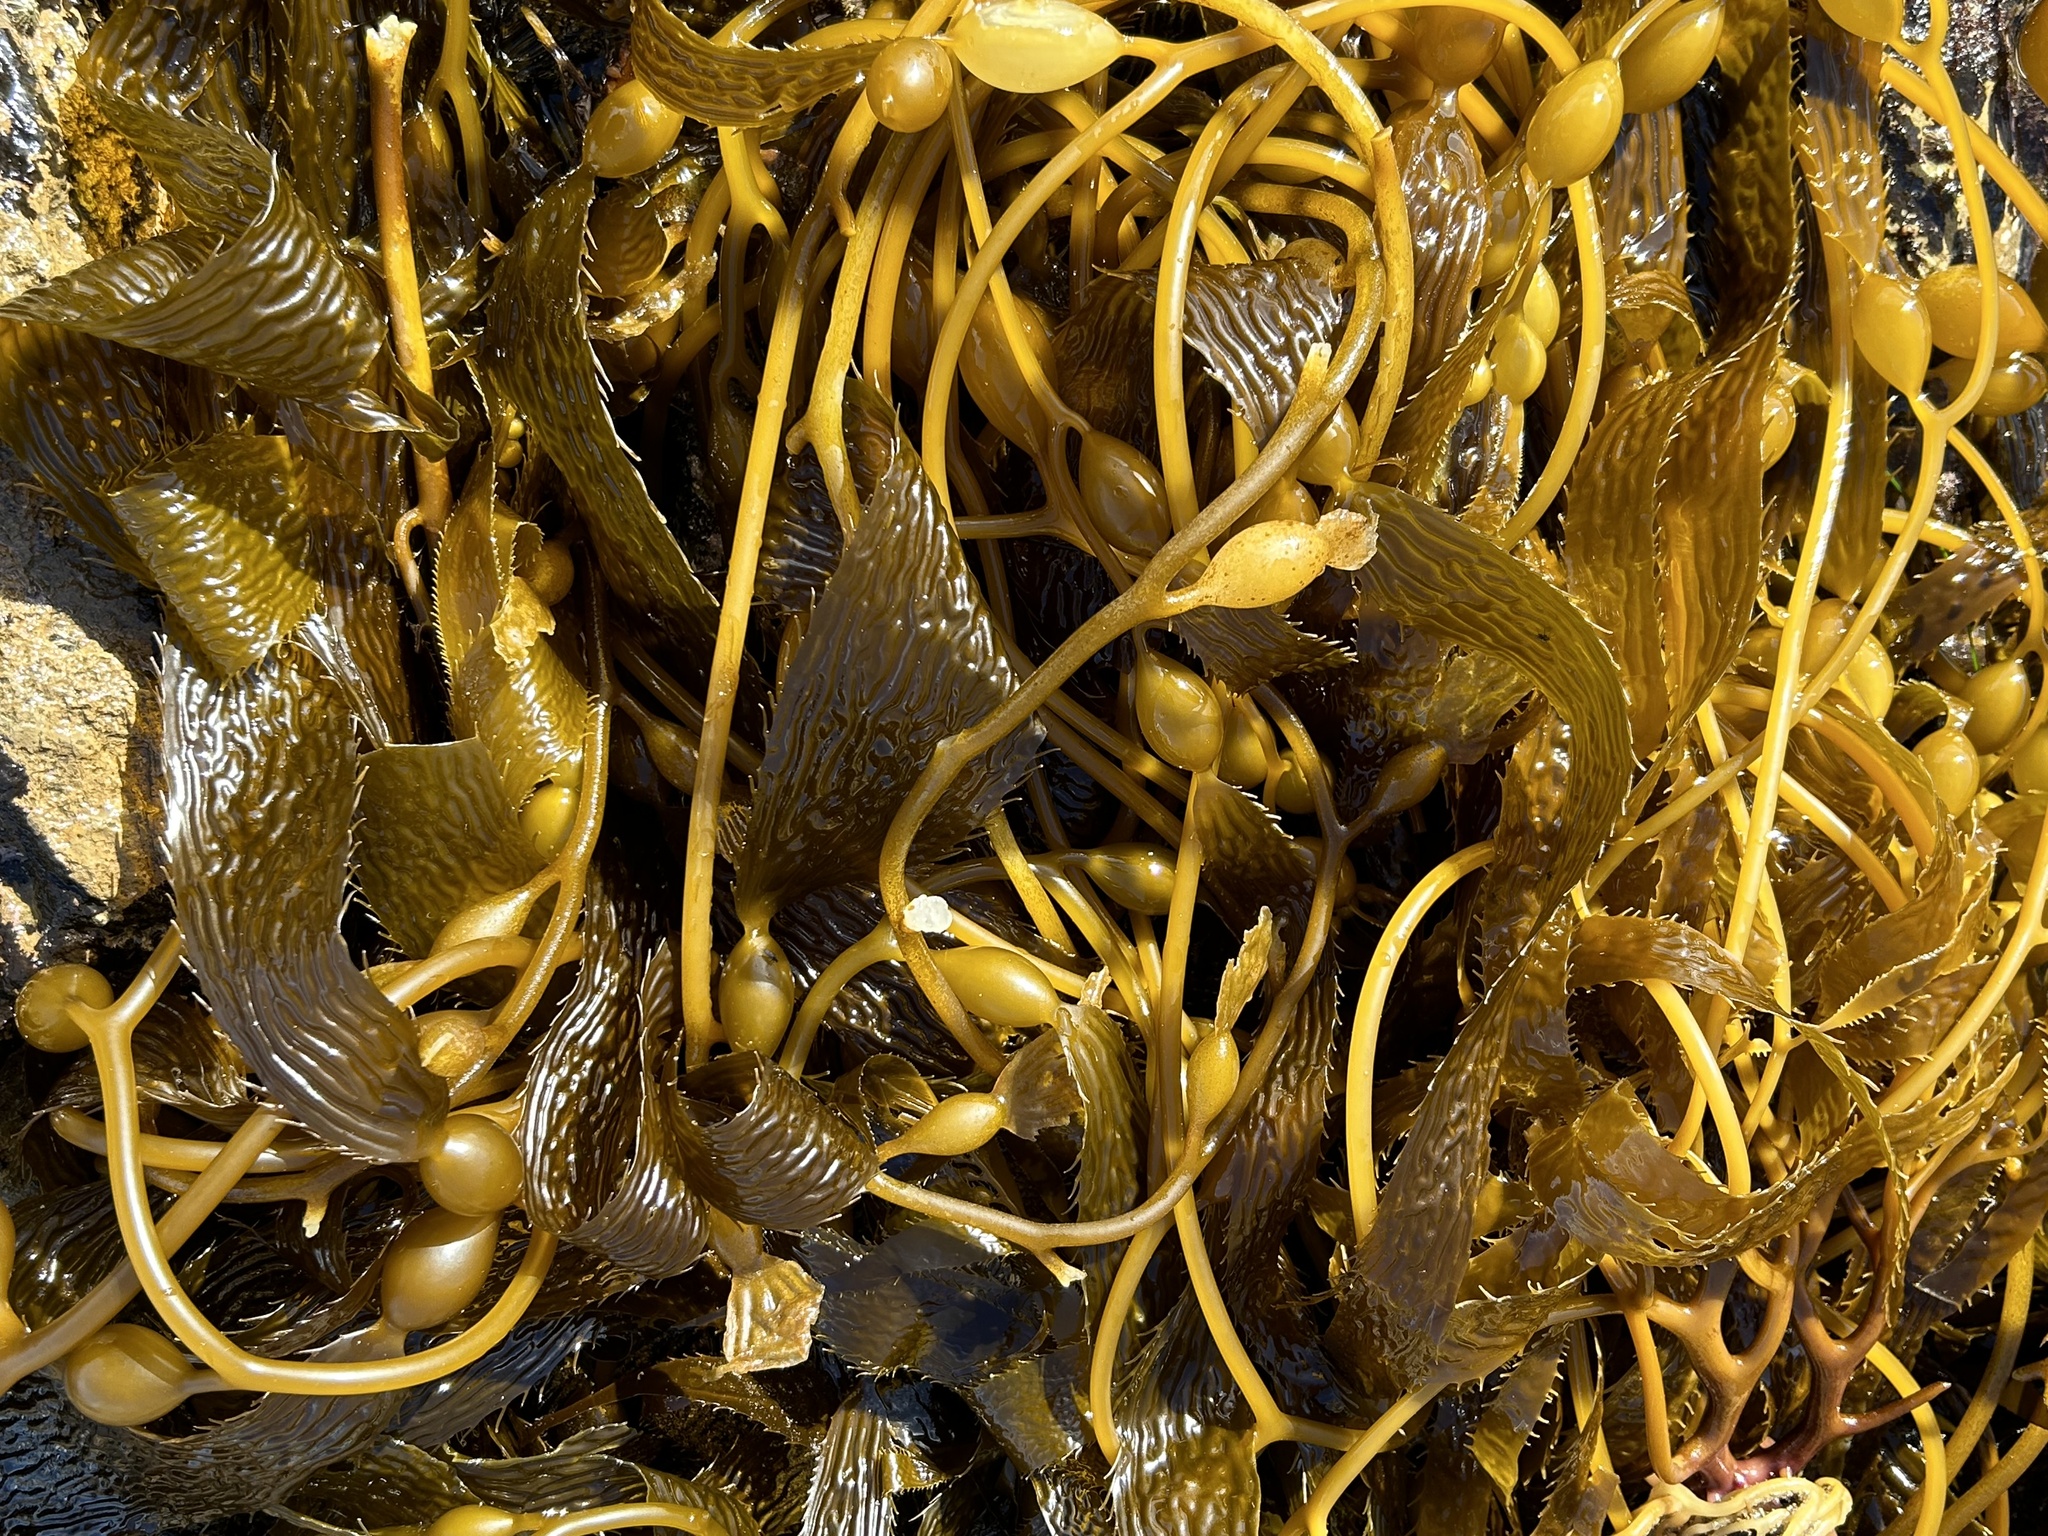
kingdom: Chromista
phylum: Ochrophyta
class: Phaeophyceae
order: Laminariales
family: Laminariaceae
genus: Macrocystis
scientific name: Macrocystis pyrifera
